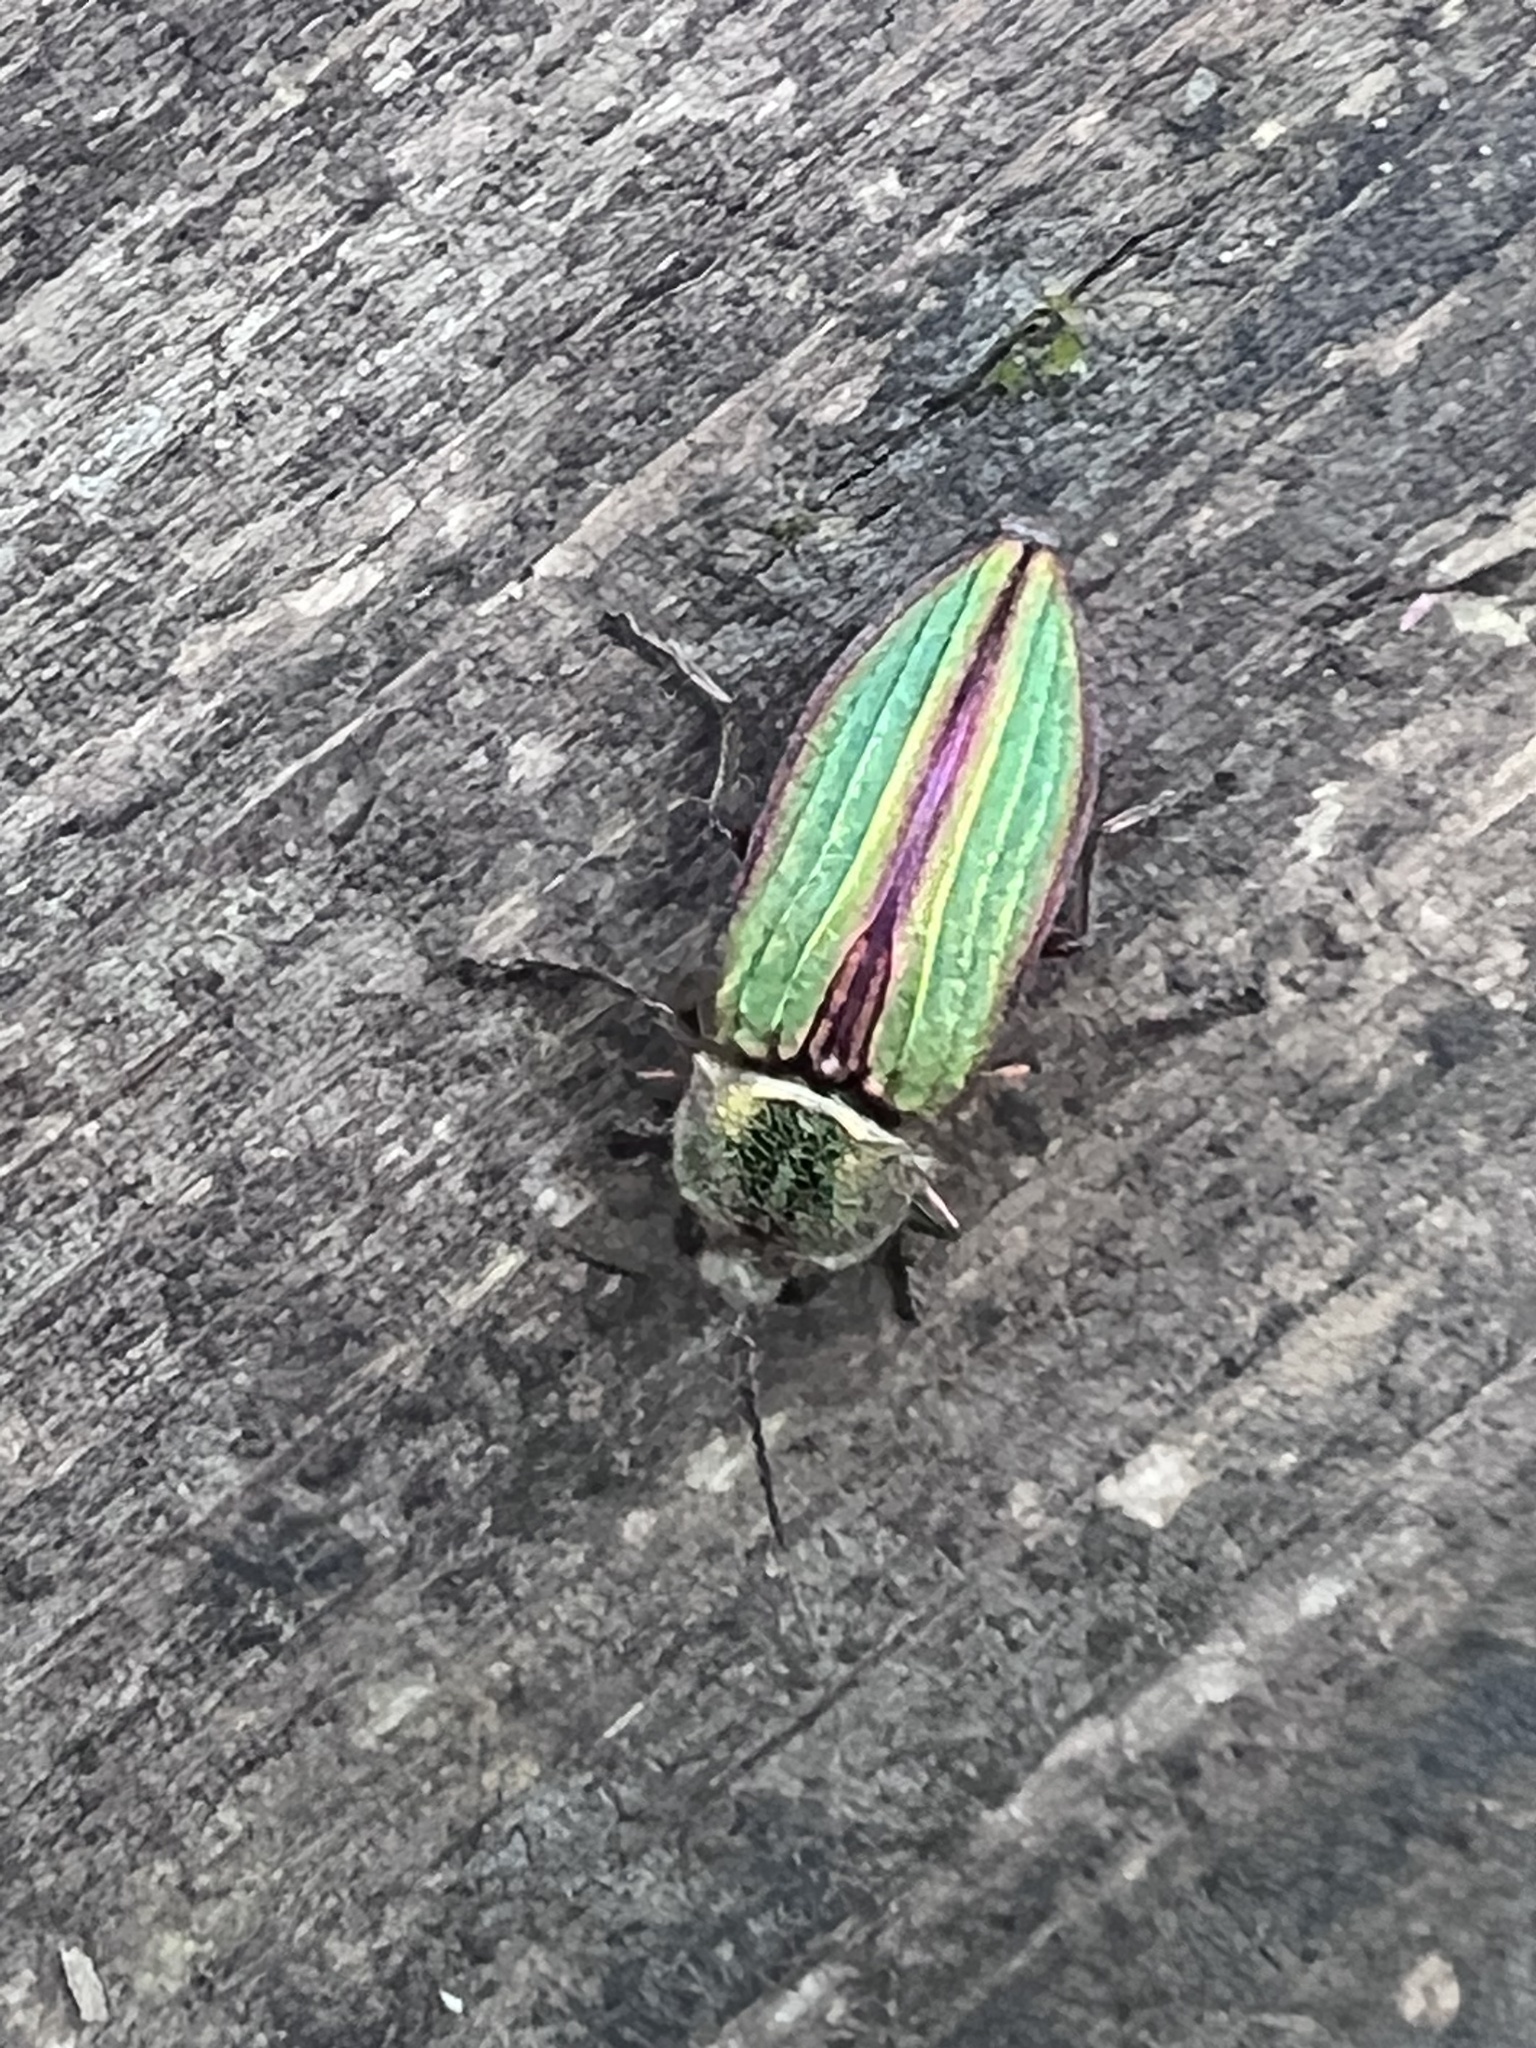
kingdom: Animalia
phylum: Arthropoda
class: Insecta
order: Coleoptera
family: Buprestidae
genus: Buprestis
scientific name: Buprestis aurulenta
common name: Golden buprestid
